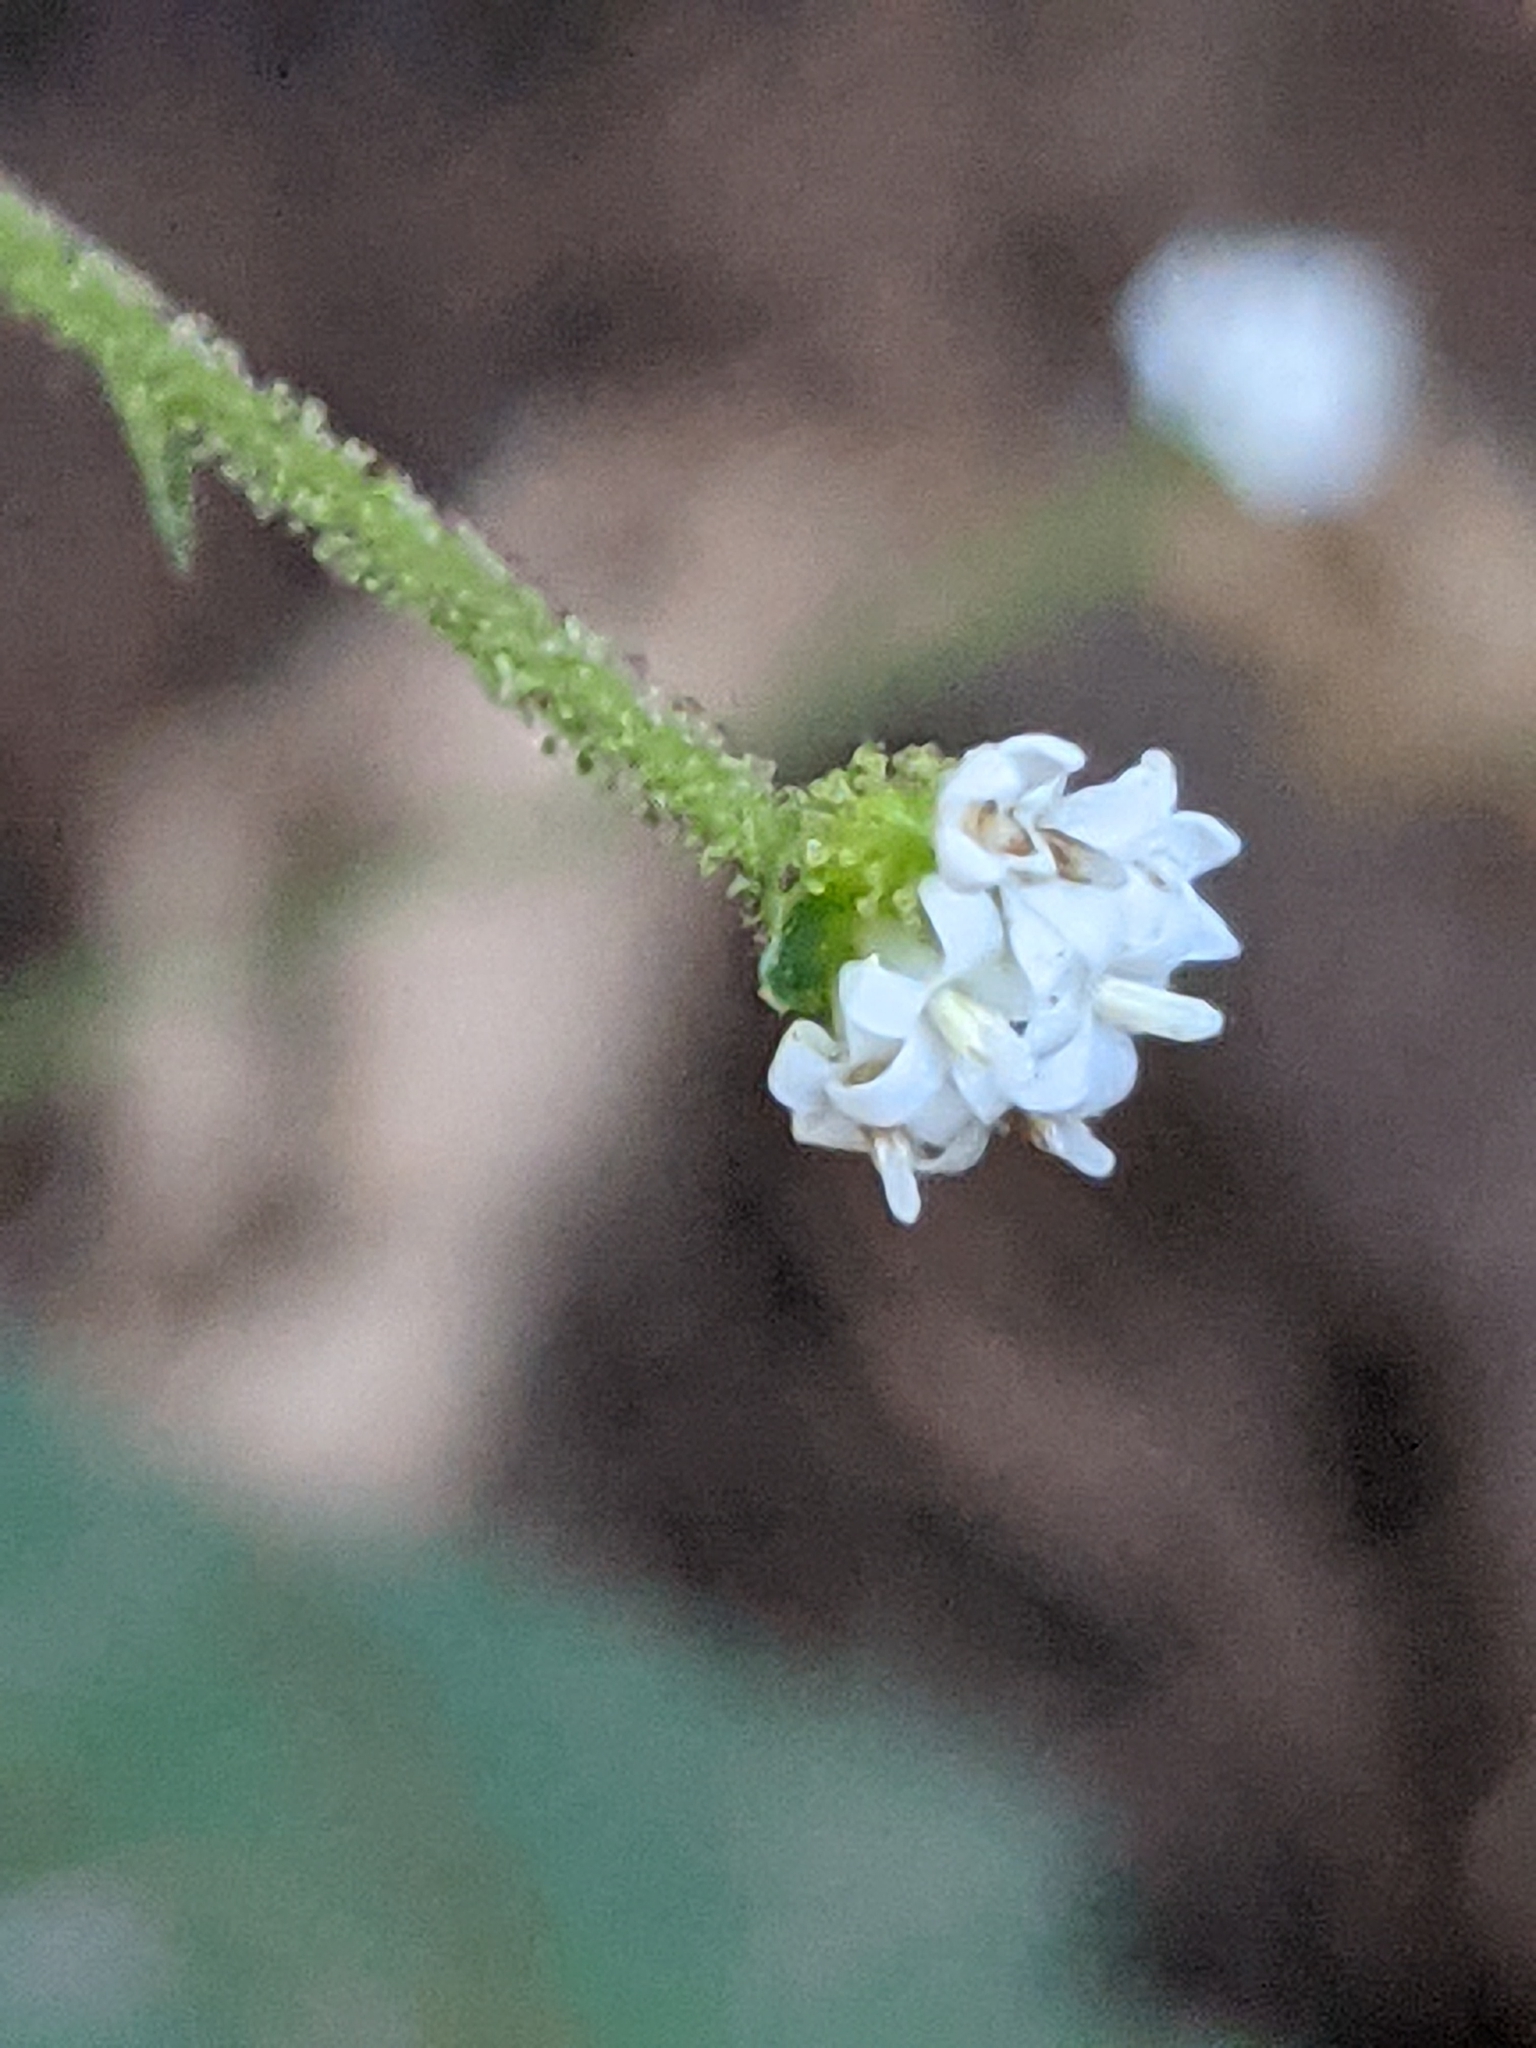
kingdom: Plantae
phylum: Tracheophyta
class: Magnoliopsida
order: Asterales
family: Asteraceae
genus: Adenocaulon
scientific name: Adenocaulon bicolor
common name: Trailplant
